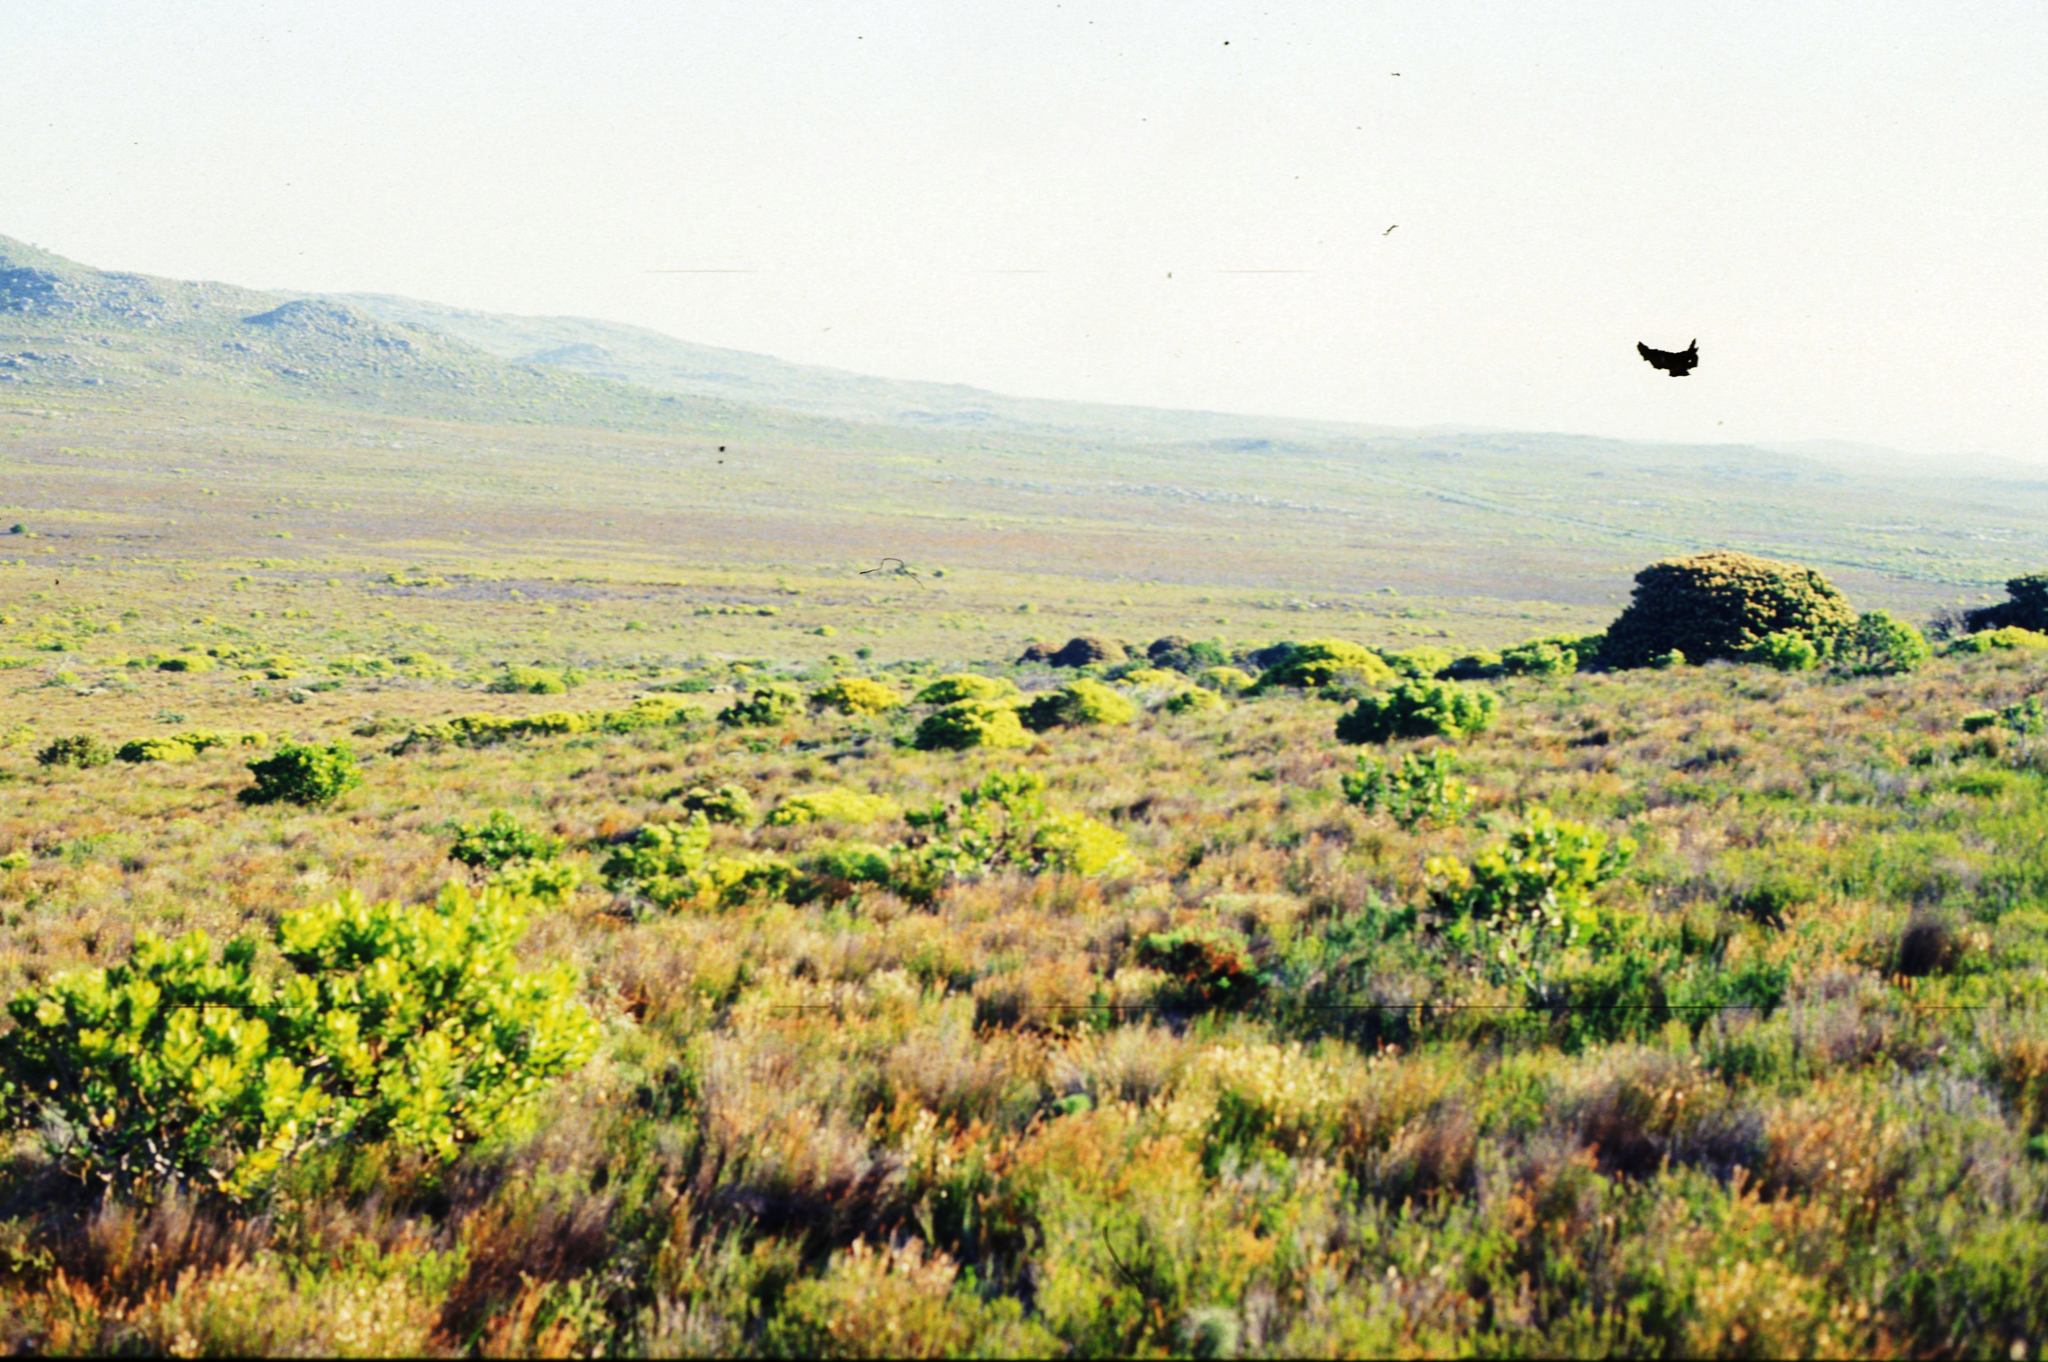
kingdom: Plantae
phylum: Tracheophyta
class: Magnoliopsida
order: Proteales
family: Proteaceae
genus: Mimetes
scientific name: Mimetes fimbriifolius
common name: Fringed bottlebrush
